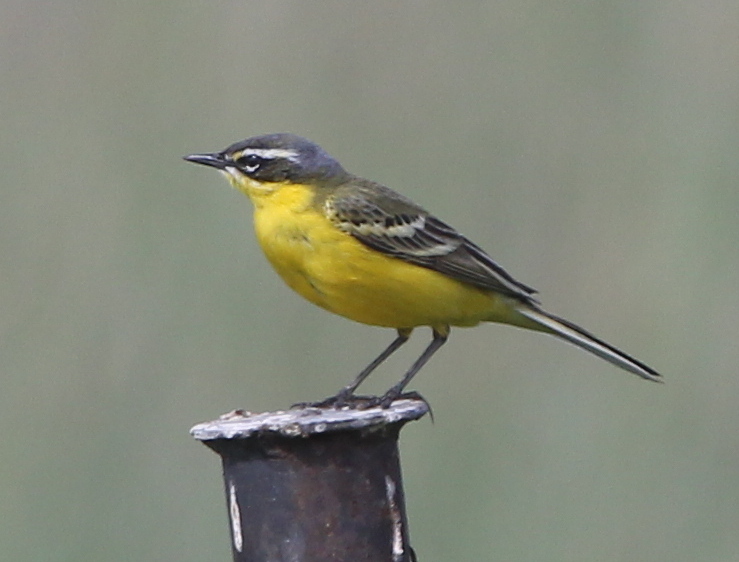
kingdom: Animalia
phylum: Chordata
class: Aves
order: Passeriformes
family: Motacillidae
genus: Motacilla
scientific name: Motacilla flava
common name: Western yellow wagtail
